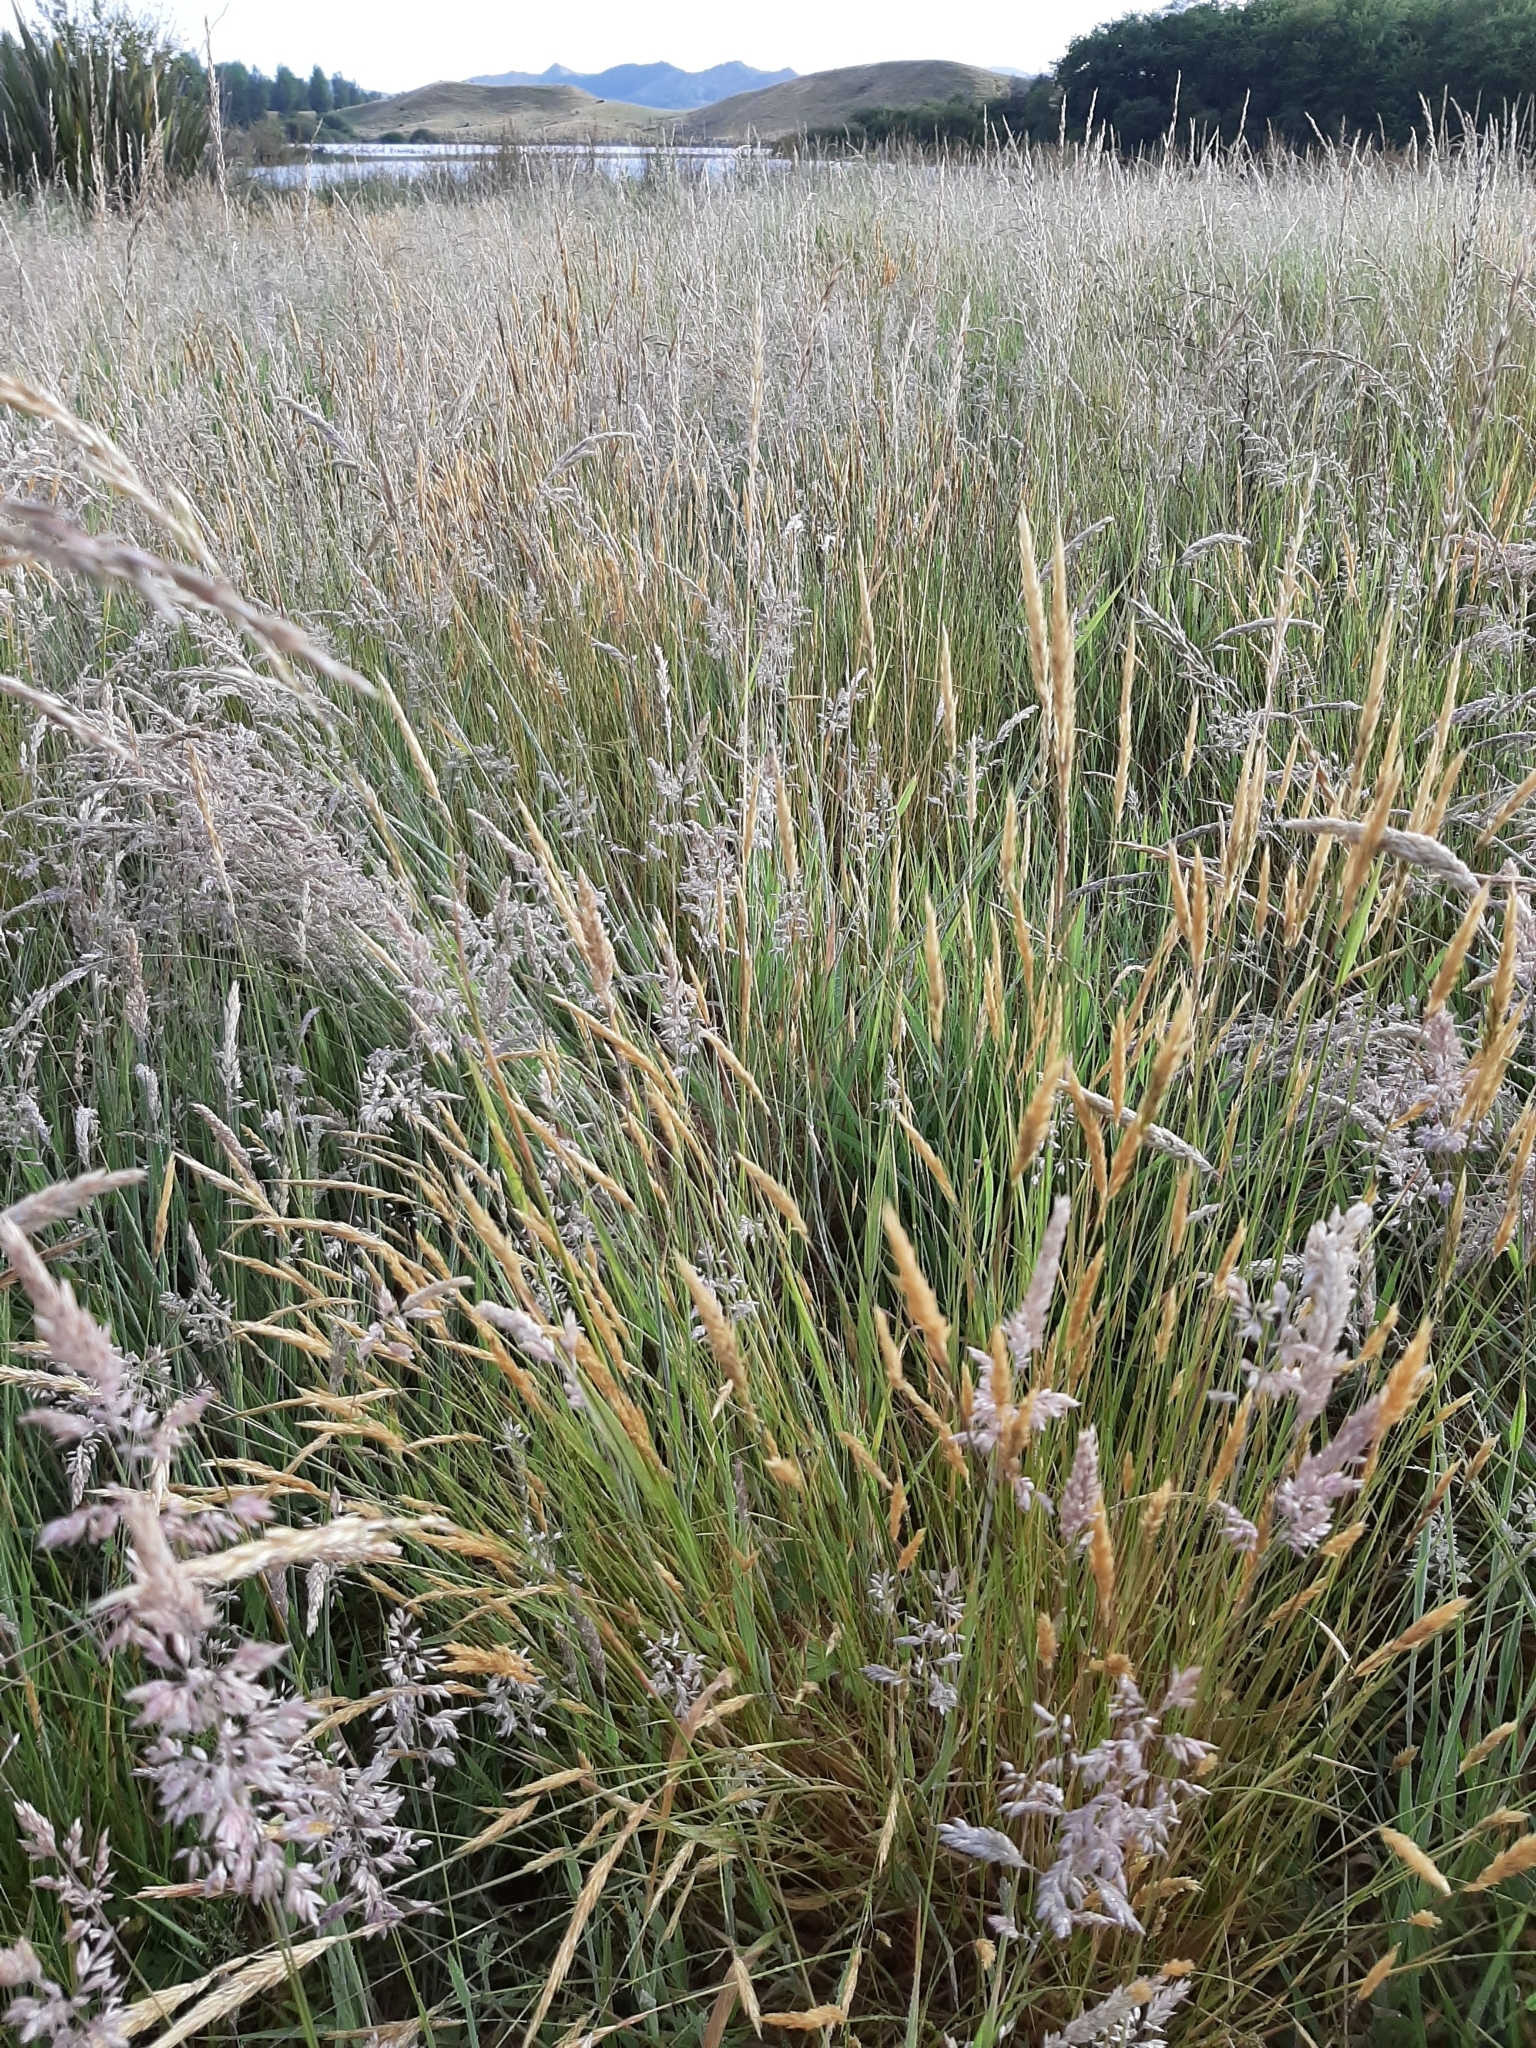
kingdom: Plantae
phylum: Tracheophyta
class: Liliopsida
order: Poales
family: Poaceae
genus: Anthoxanthum
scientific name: Anthoxanthum odoratum
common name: Sweet vernalgrass
